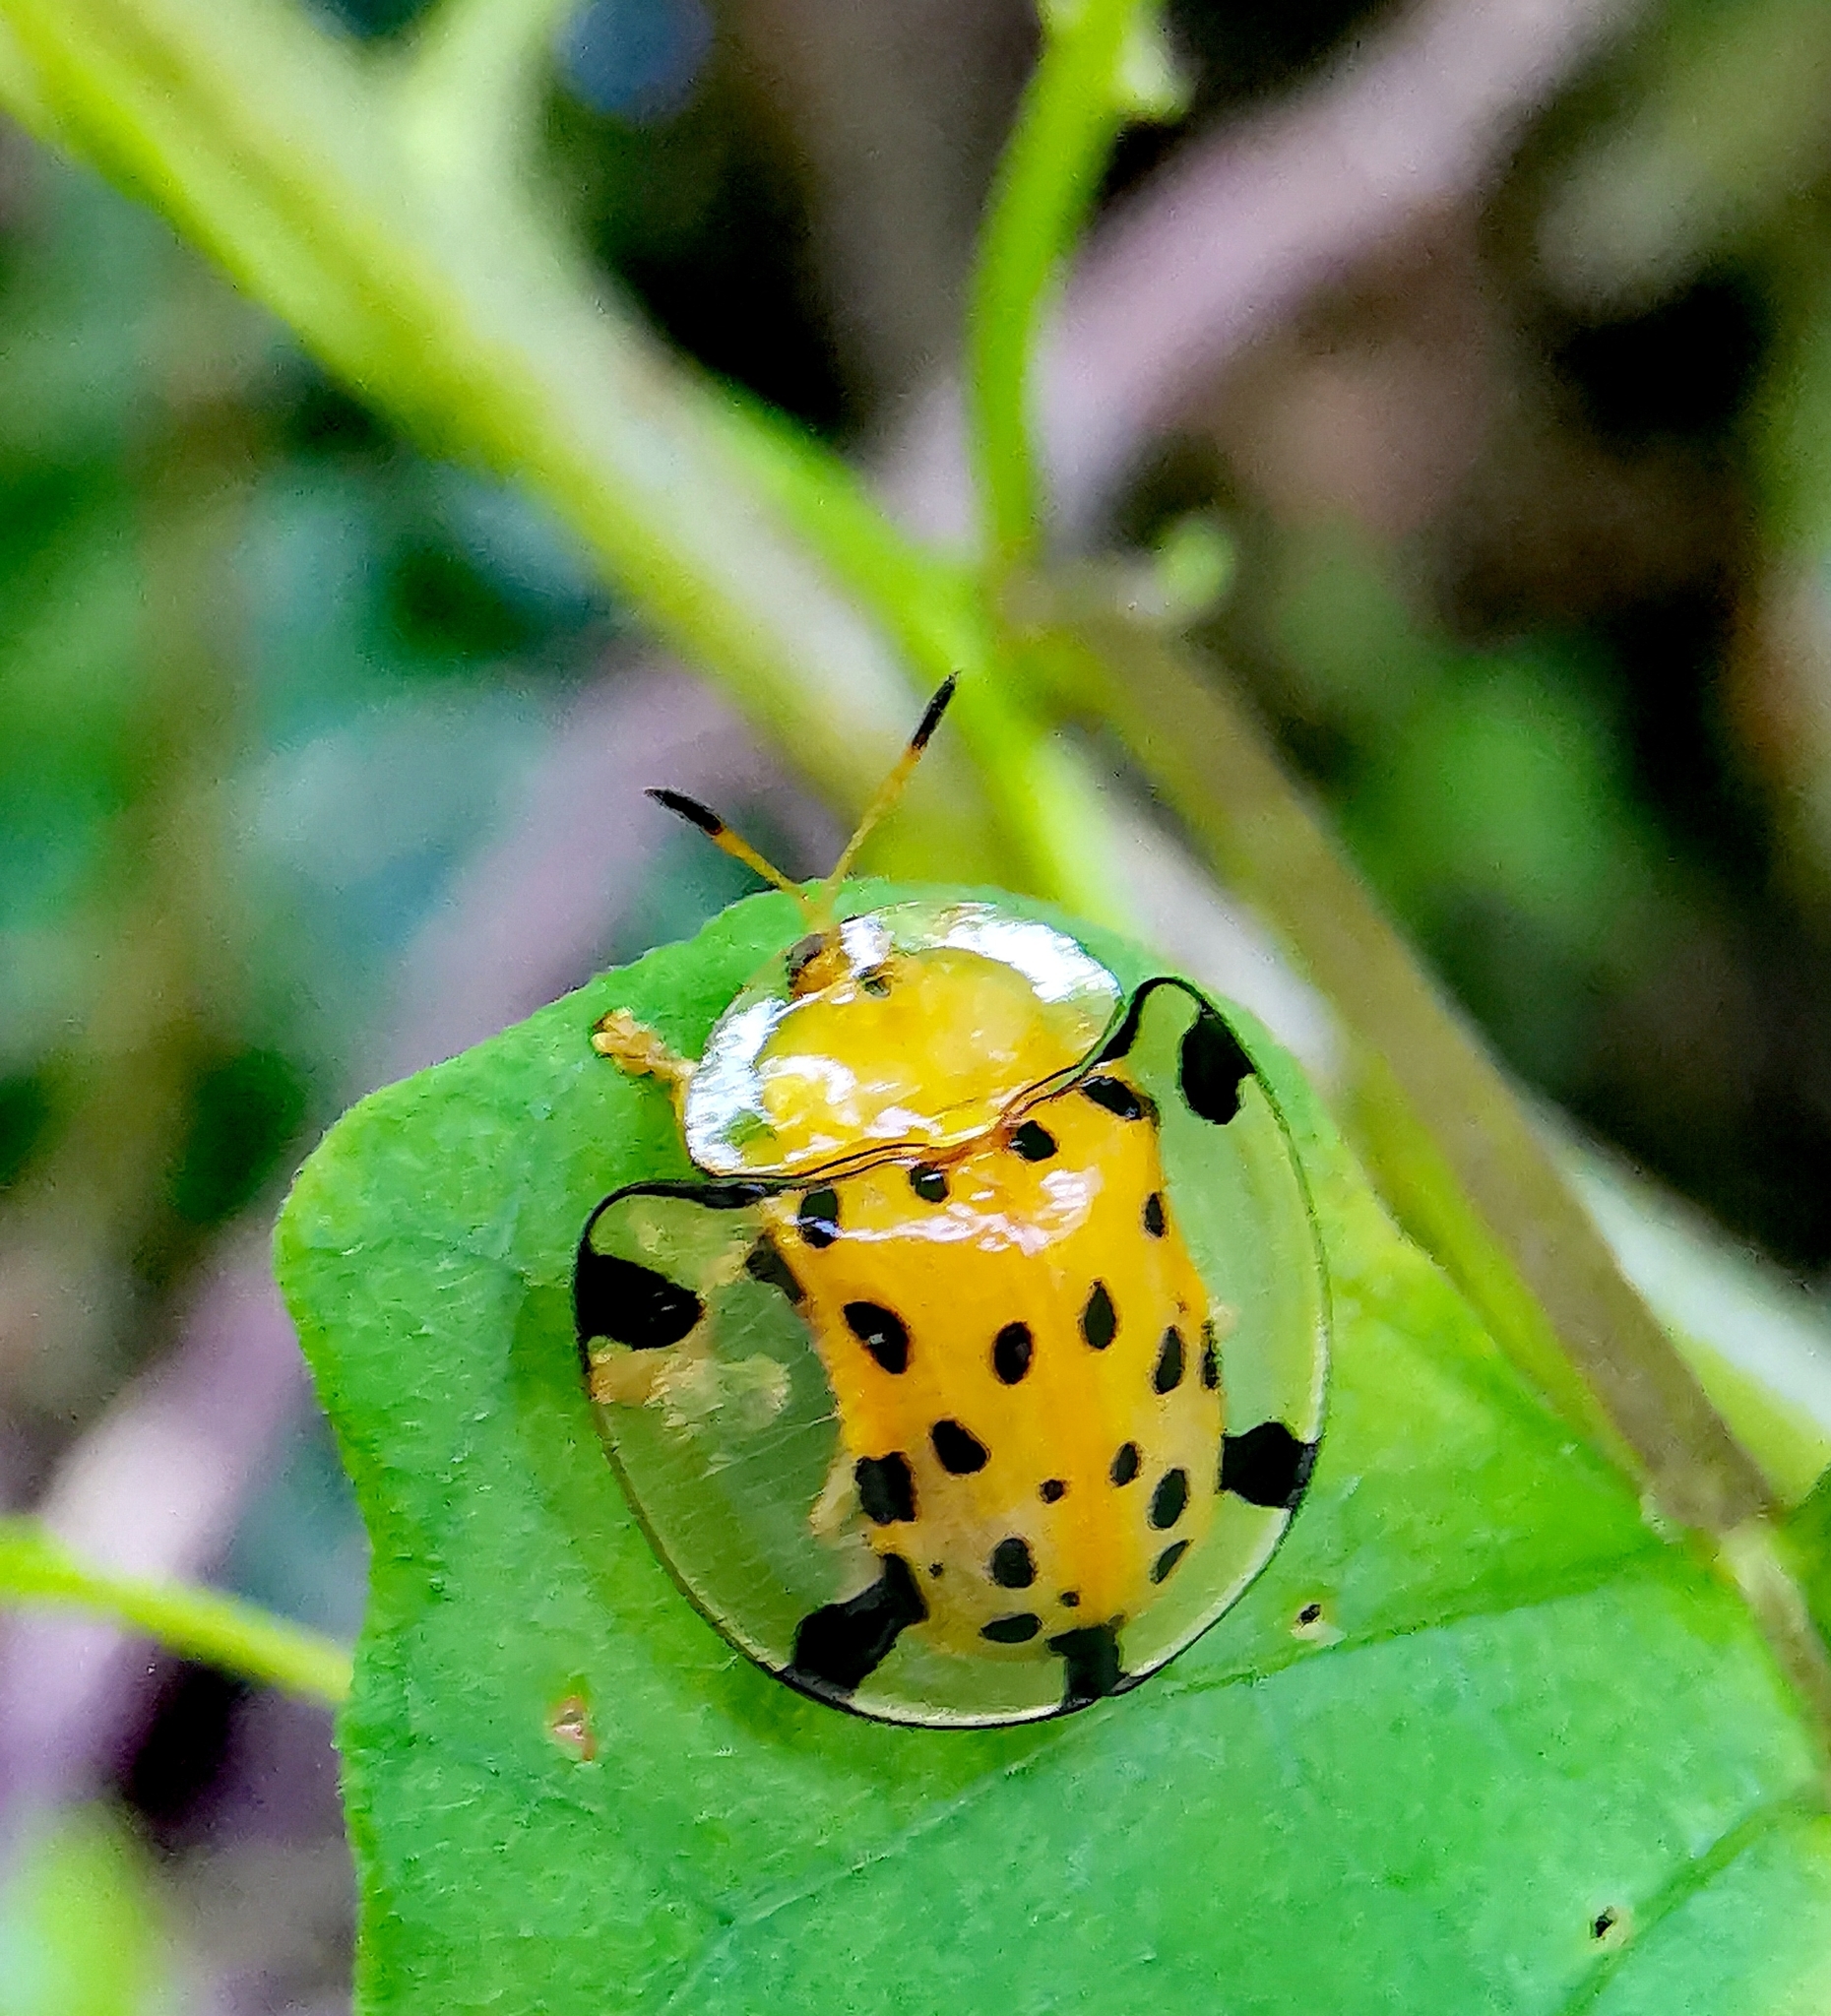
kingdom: Animalia
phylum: Arthropoda
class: Insecta
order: Coleoptera
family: Chrysomelidae
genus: Aspidimorpha
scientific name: Aspidimorpha miliaris
